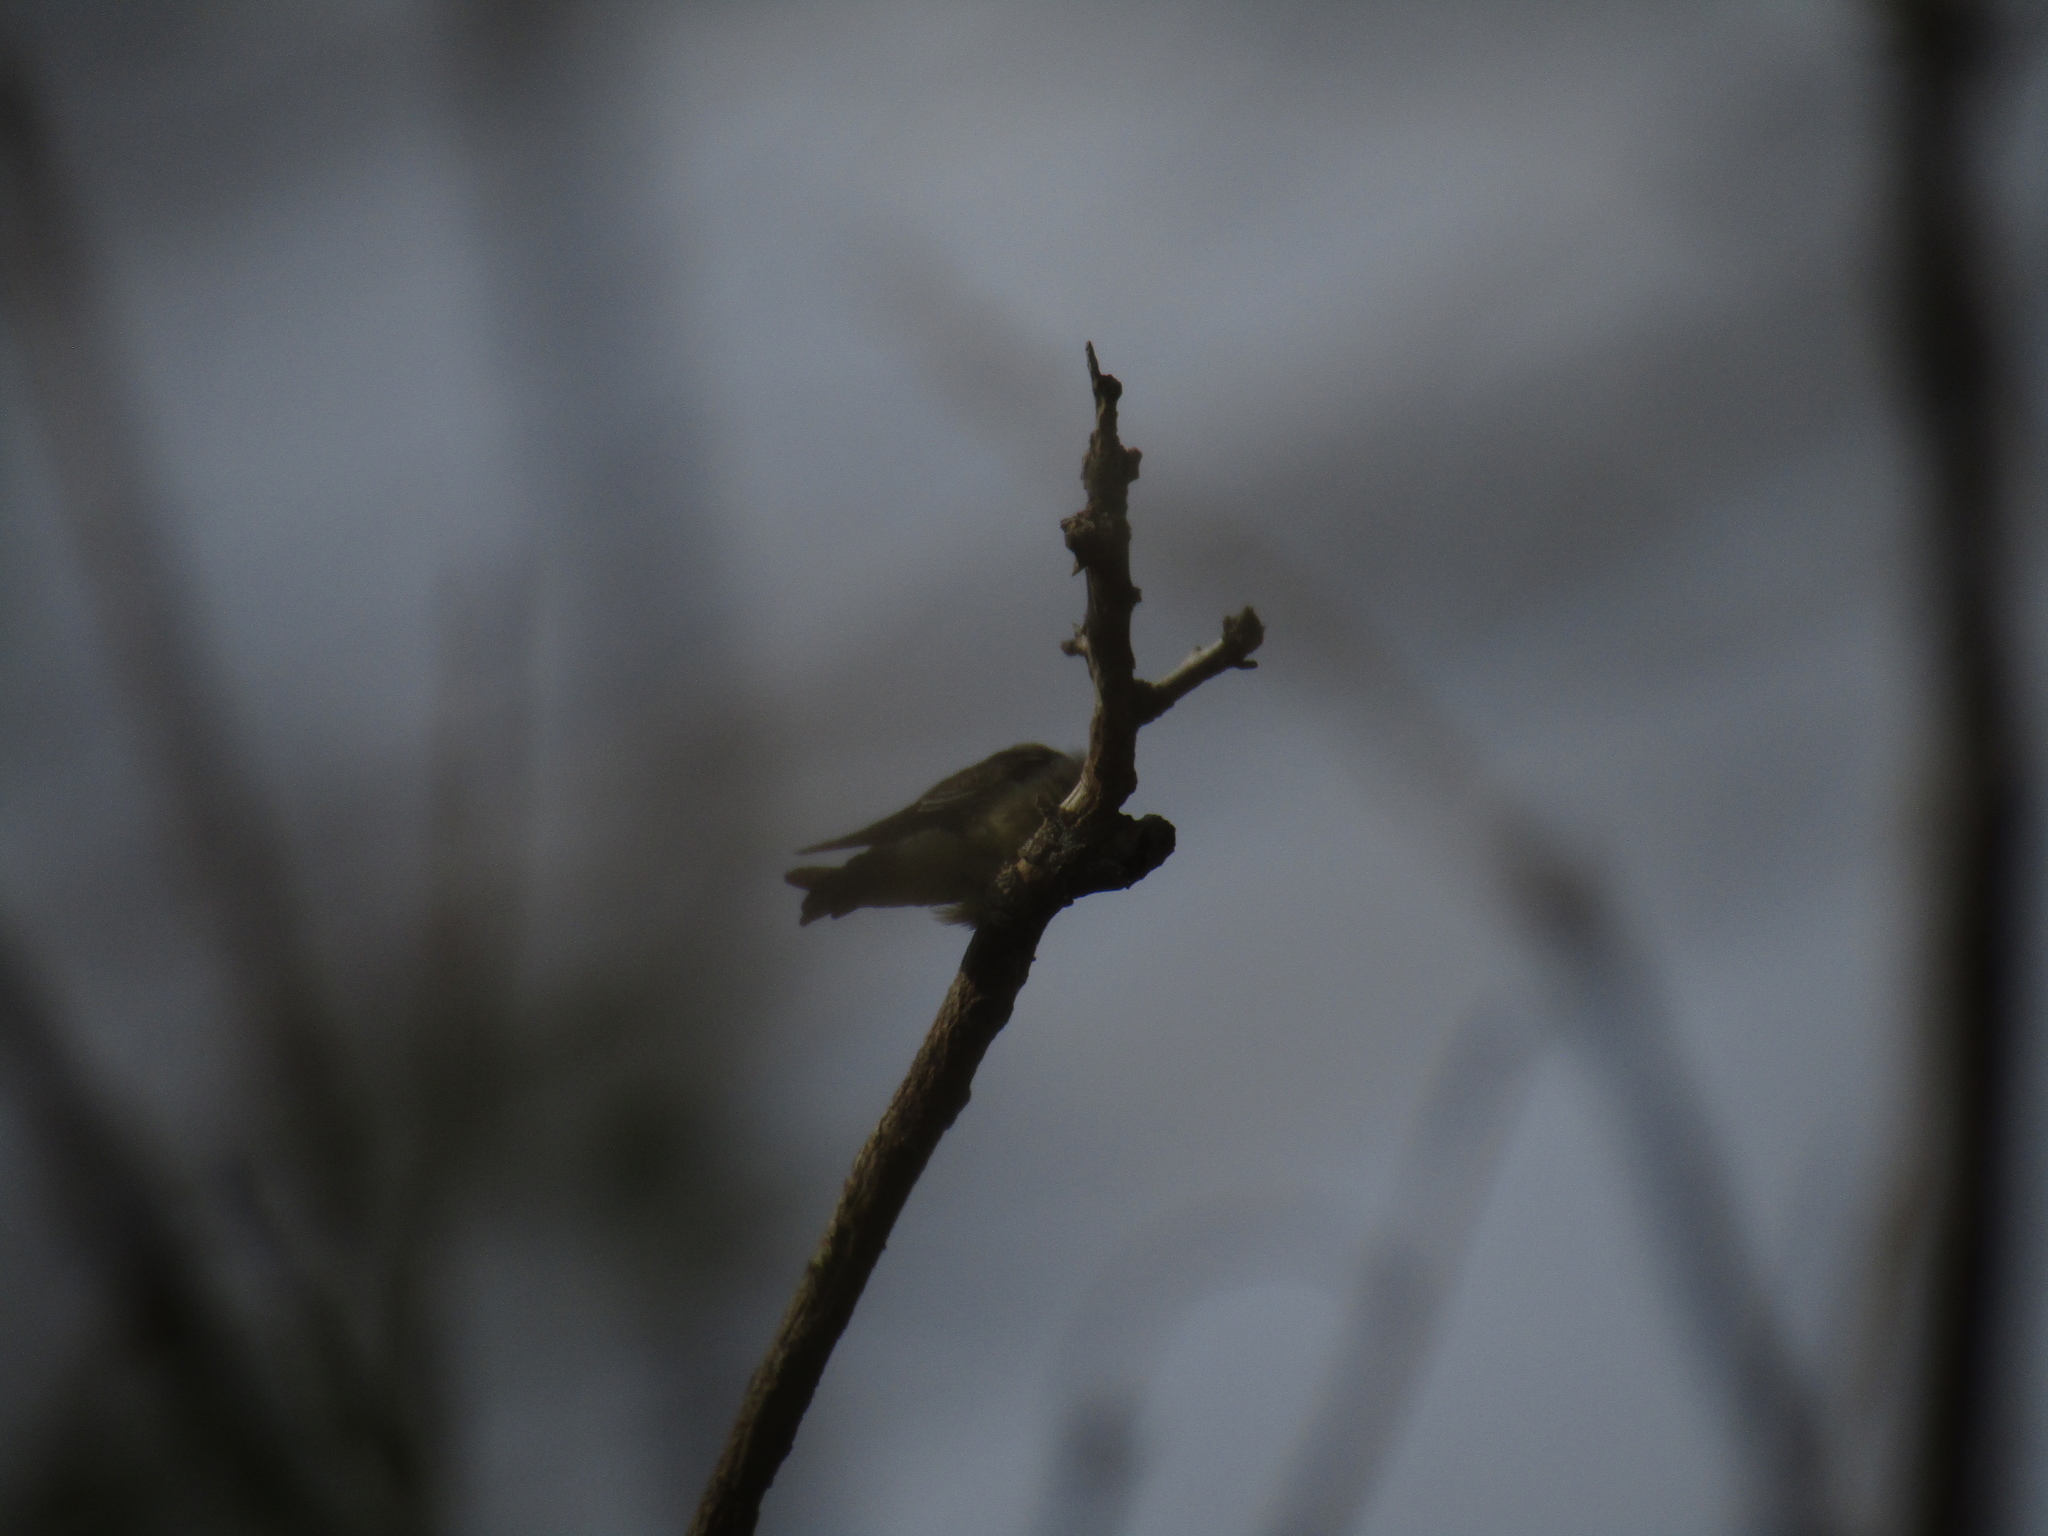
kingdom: Animalia
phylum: Chordata
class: Aves
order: Passeriformes
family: Hirundinidae
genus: Hirundo
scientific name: Hirundo rustica
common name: Barn swallow
